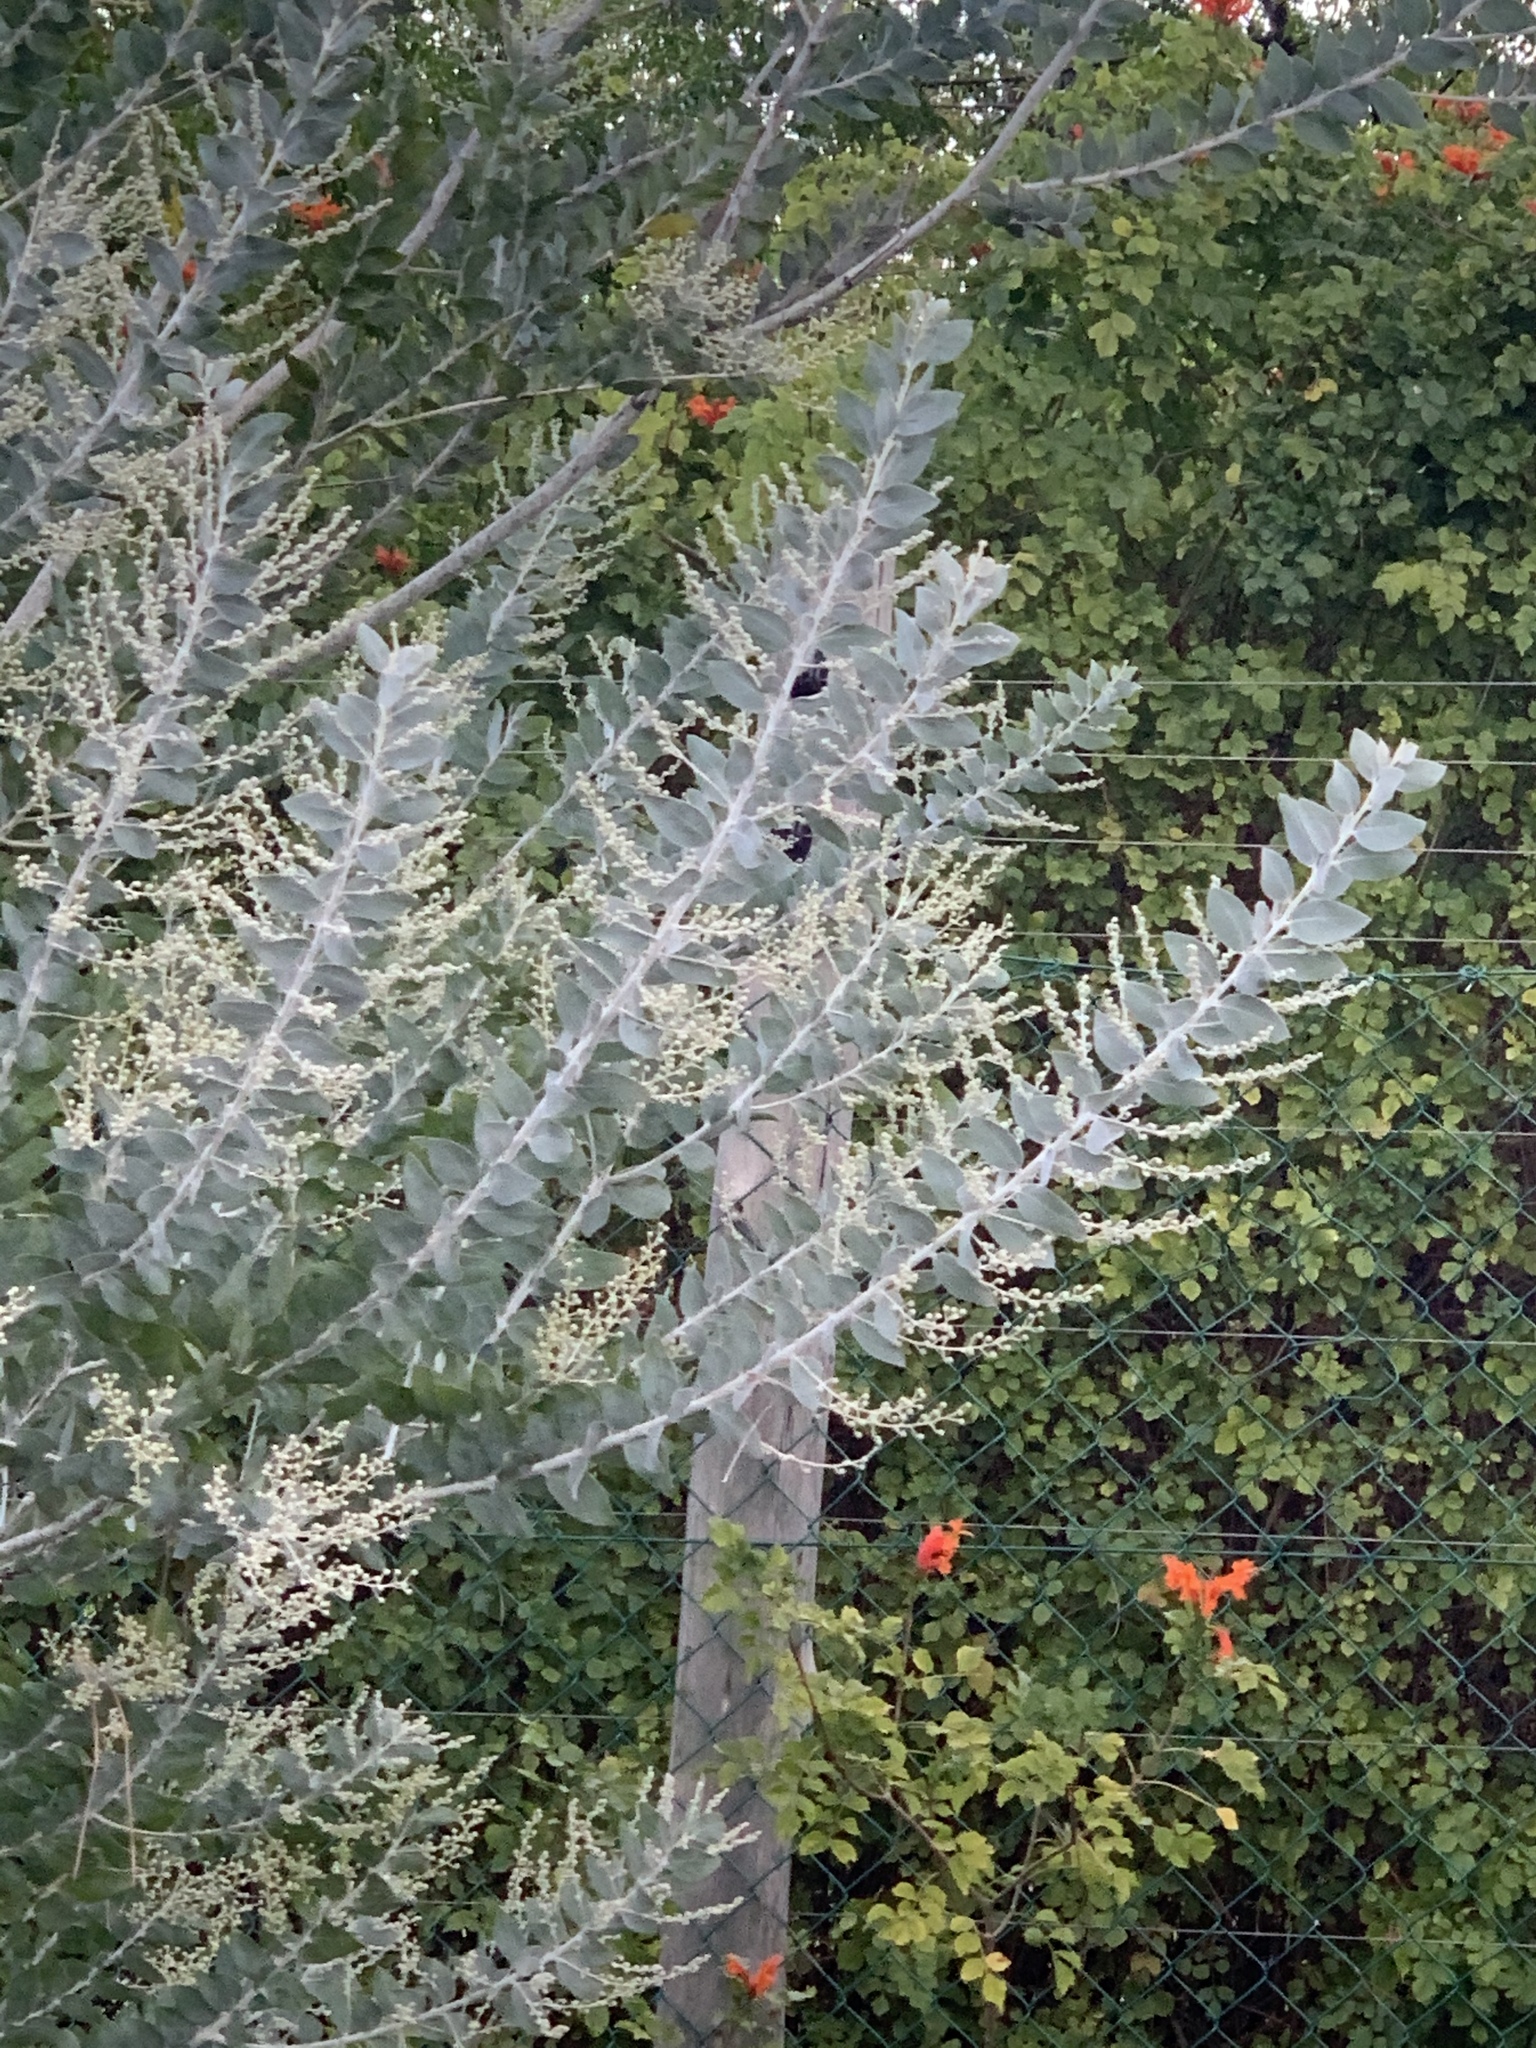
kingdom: Plantae
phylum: Tracheophyta
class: Magnoliopsida
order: Fabales
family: Fabaceae
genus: Acacia
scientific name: Acacia podalyriifolia
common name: Pearl wattle
